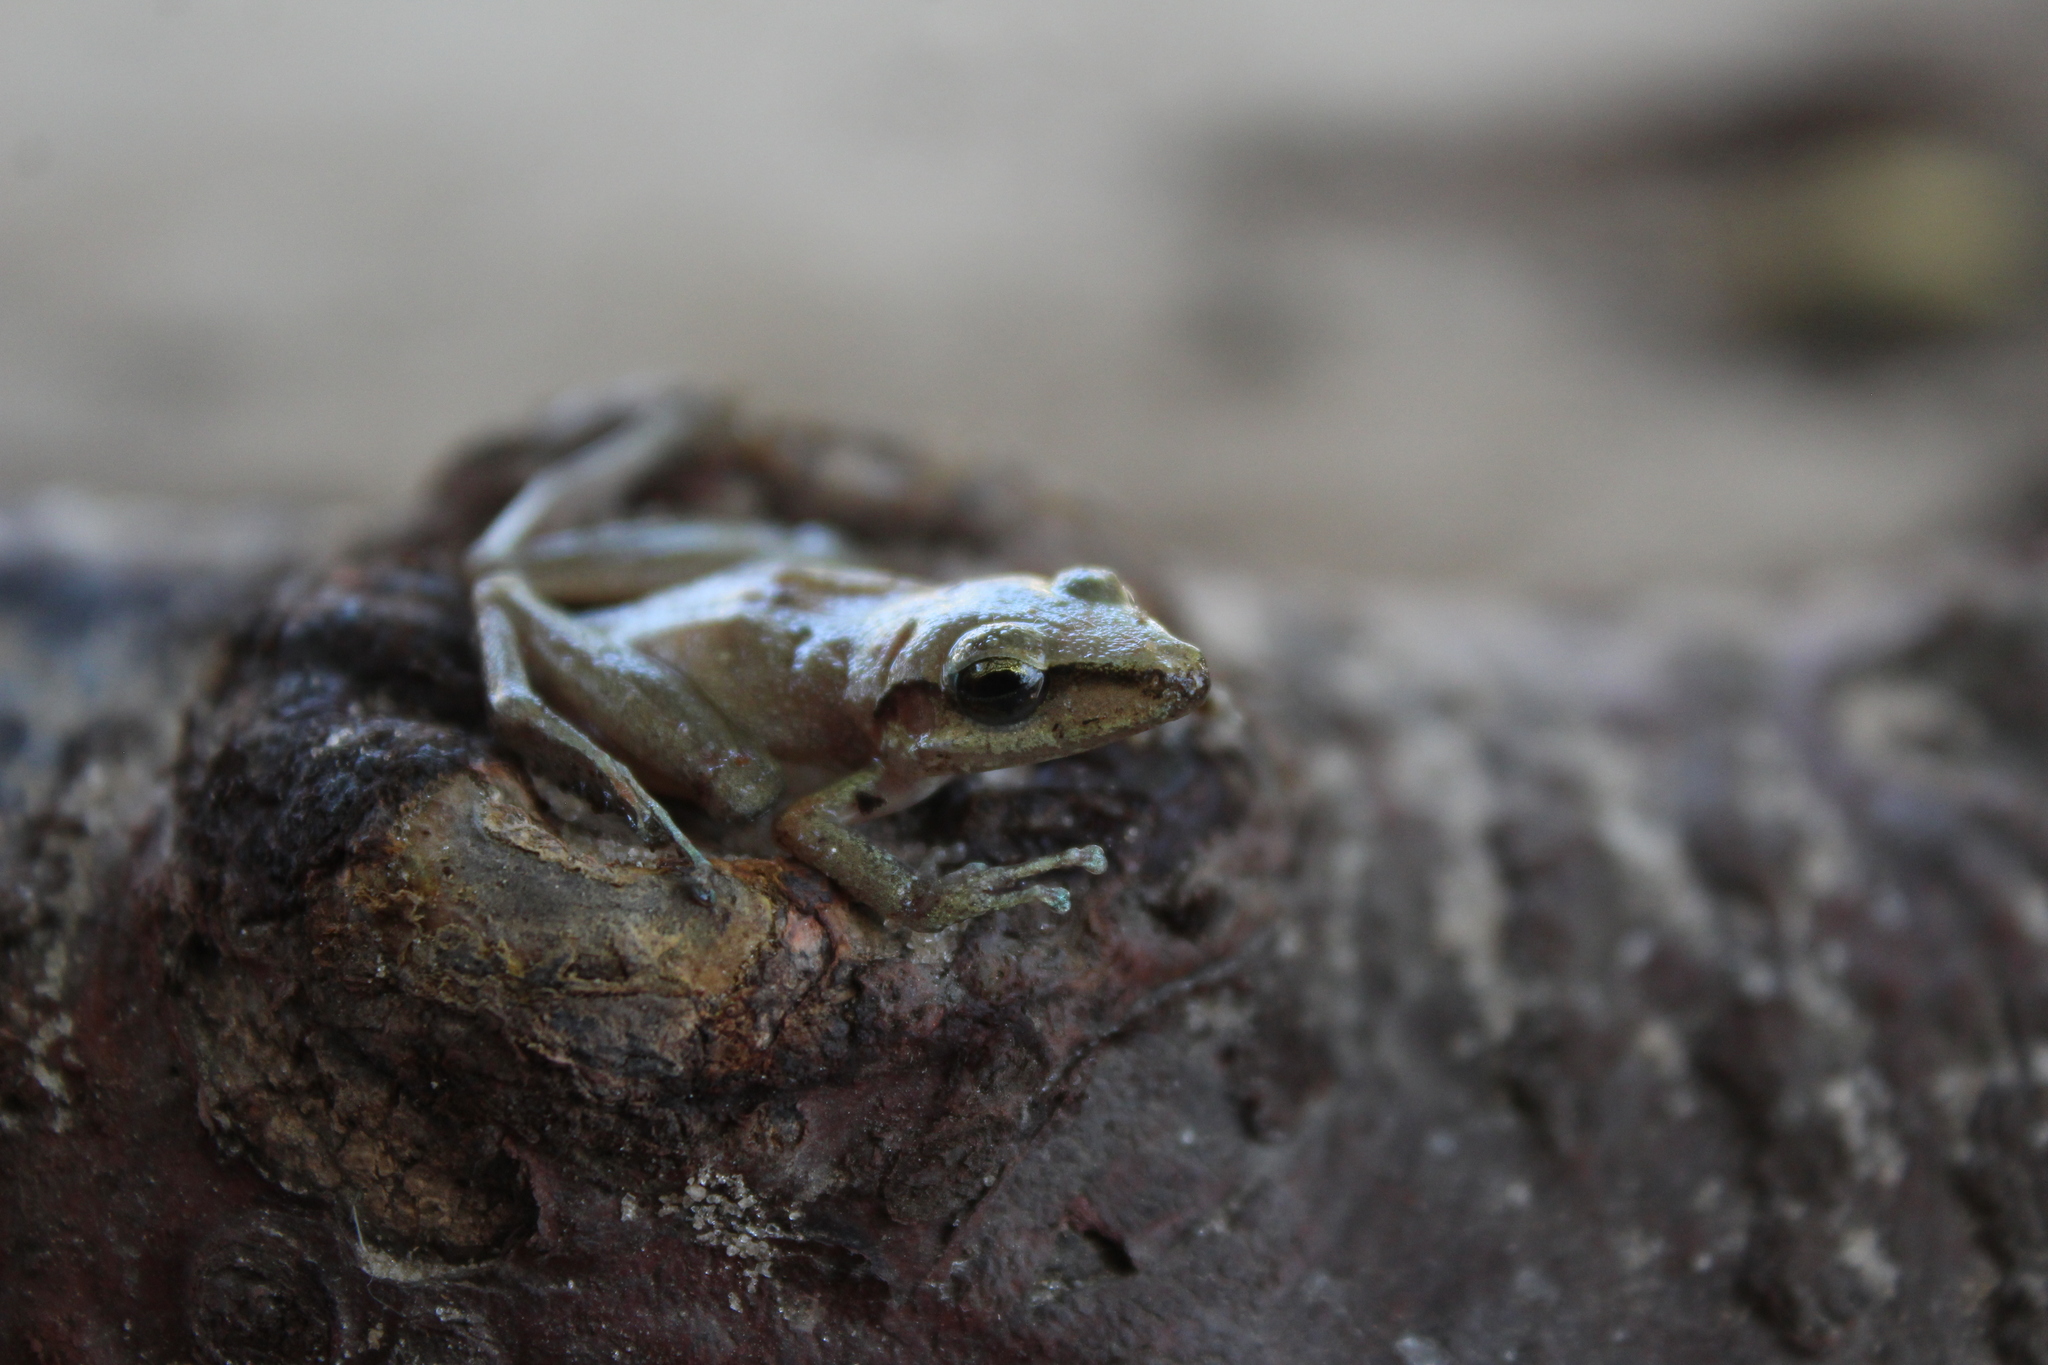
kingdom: Animalia
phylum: Chordata
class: Amphibia
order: Anura
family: Craugastoridae
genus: Pristimantis
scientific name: Pristimantis ramagii
